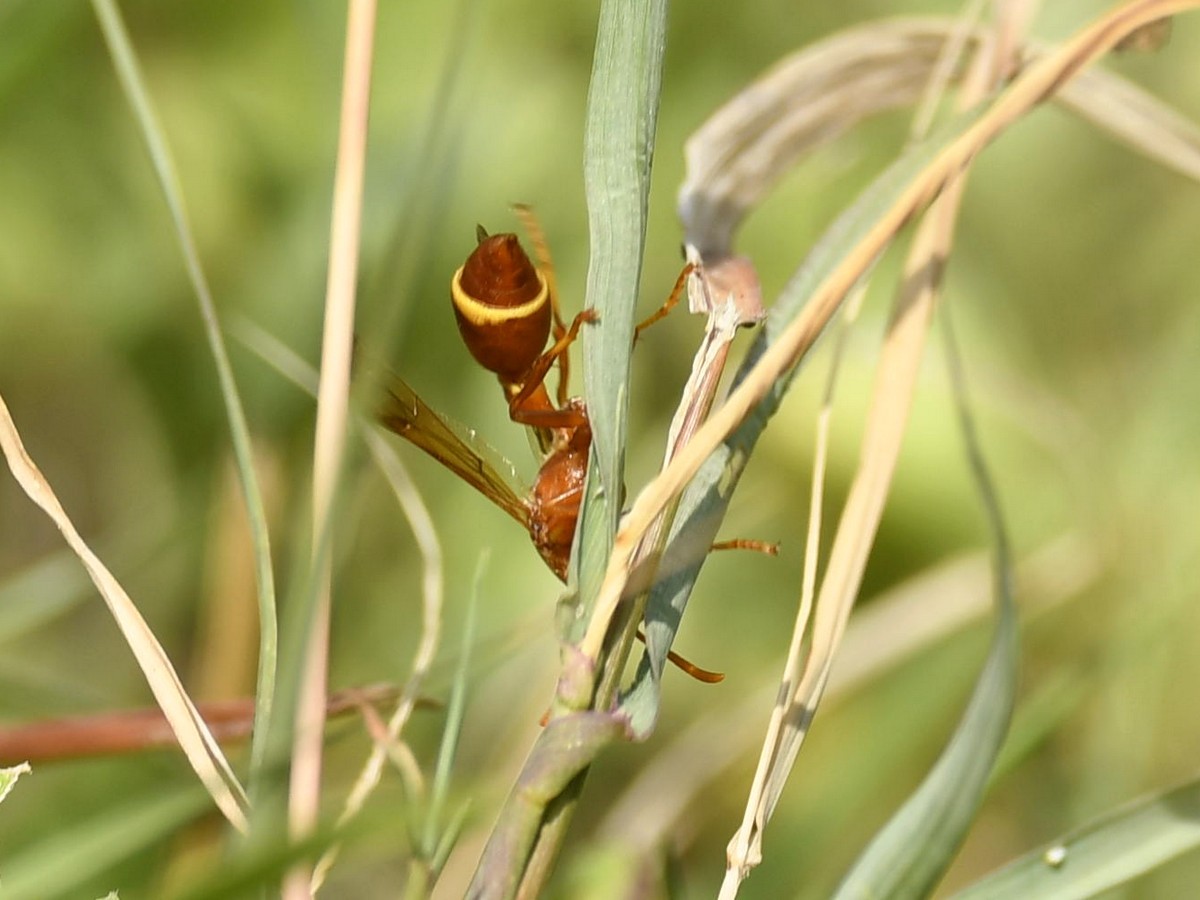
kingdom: Animalia
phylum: Arthropoda
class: Insecta
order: Hymenoptera
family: Vespidae
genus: Ropalidia
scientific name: Ropalidia marginata
